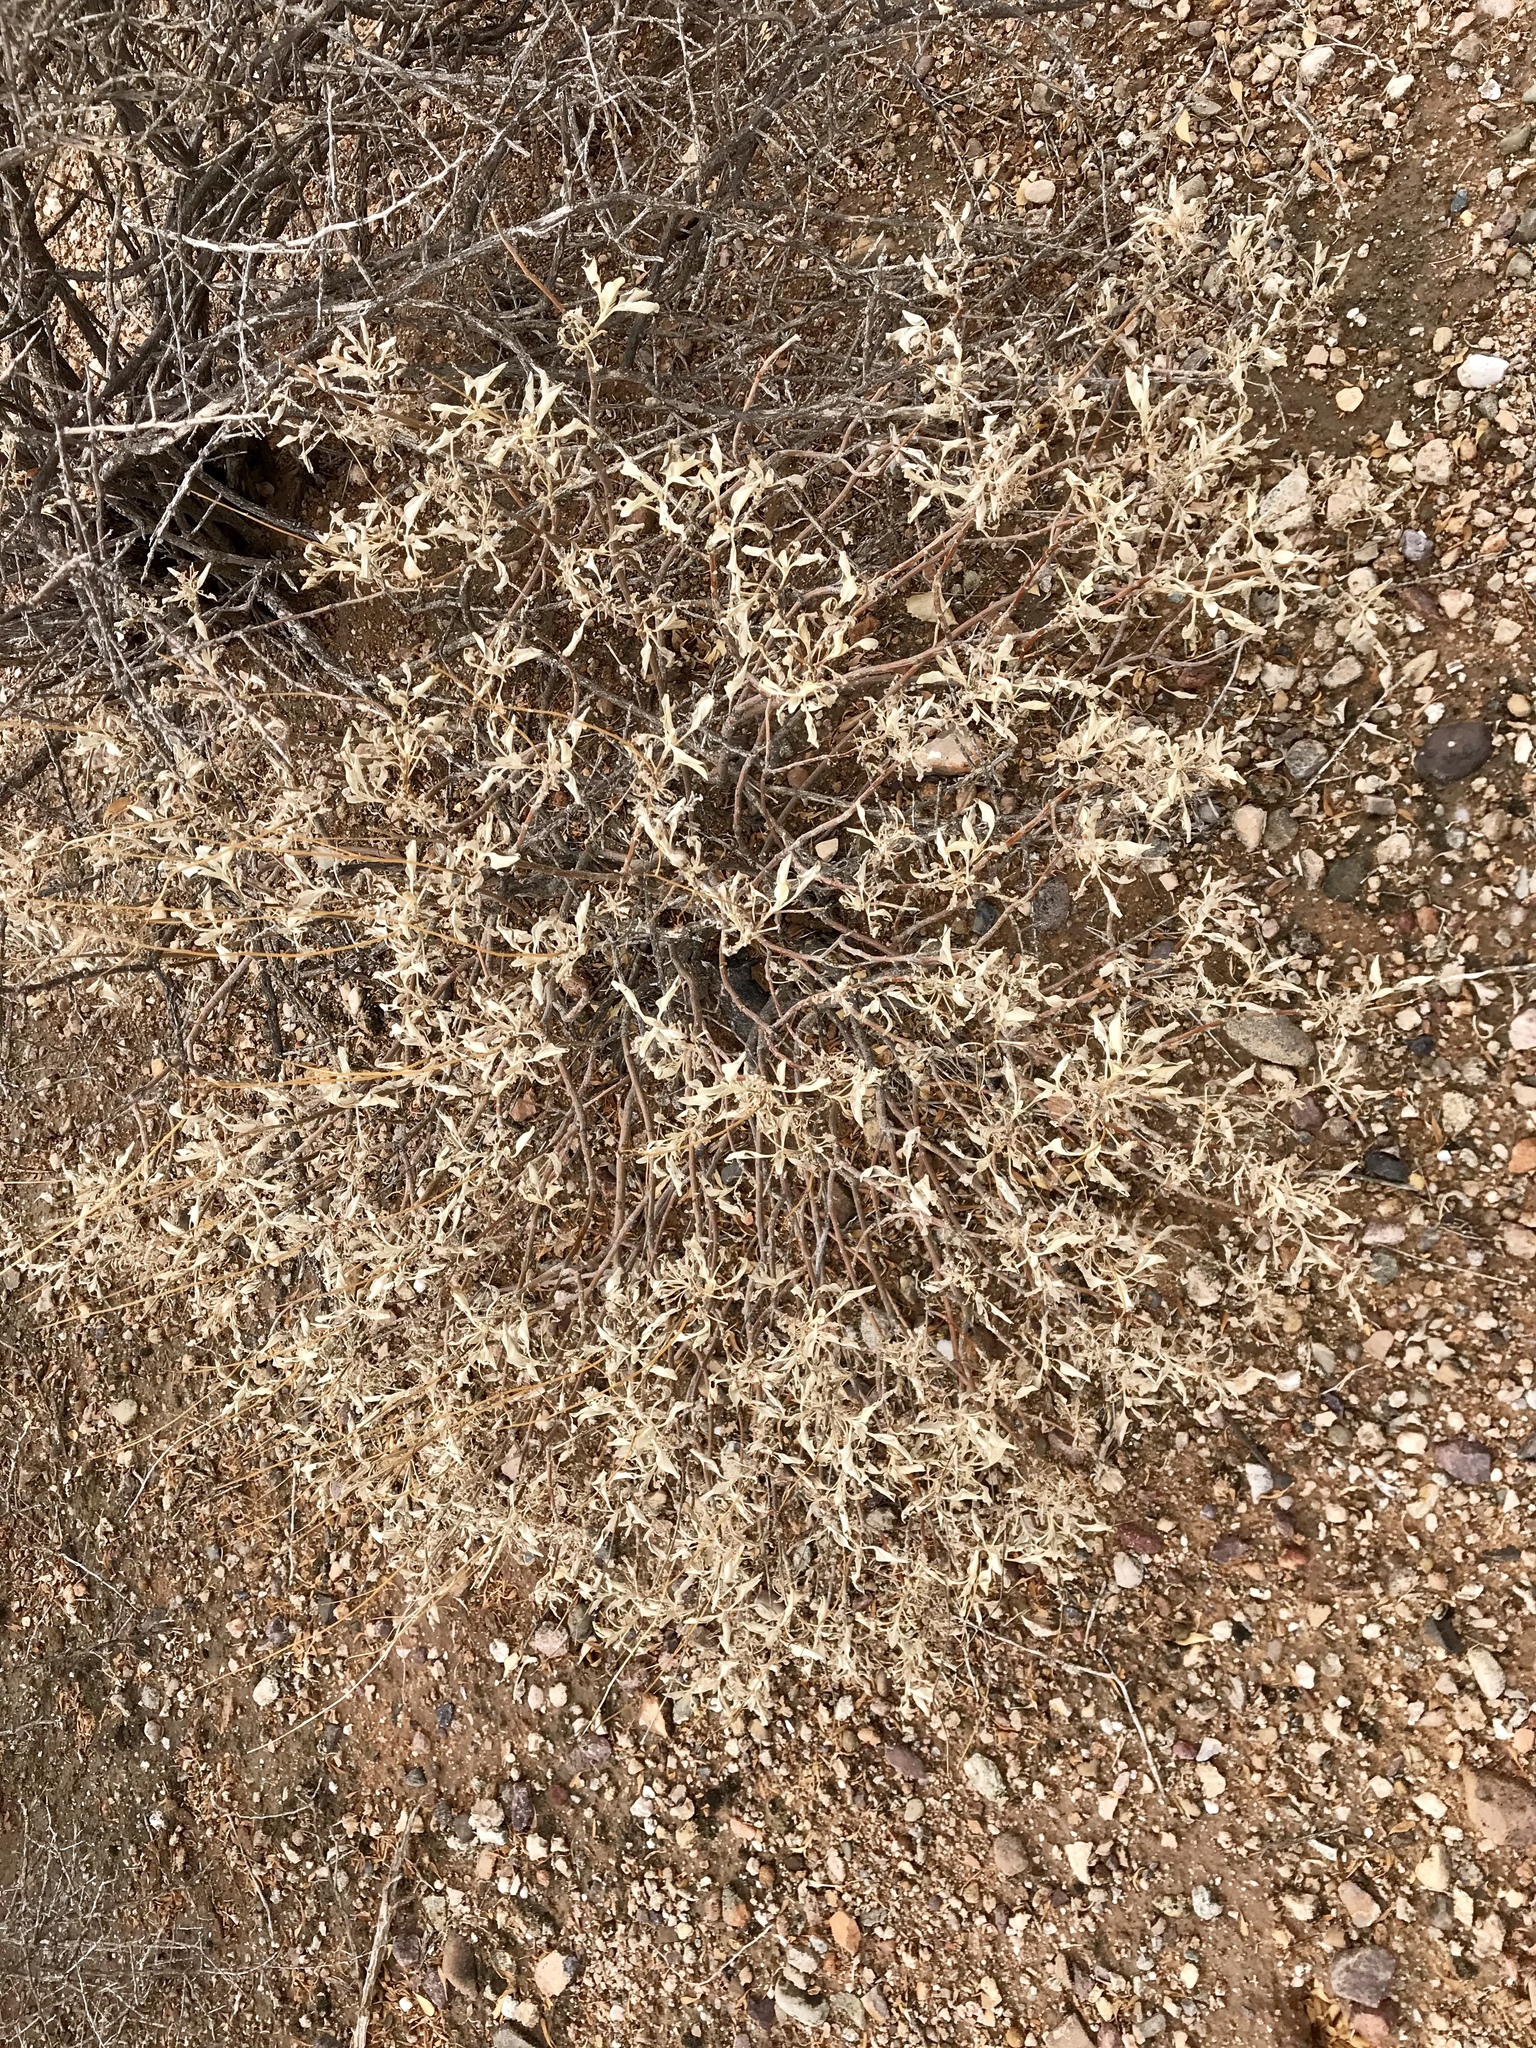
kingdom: Plantae
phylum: Tracheophyta
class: Magnoliopsida
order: Asterales
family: Asteraceae
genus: Ambrosia
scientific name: Ambrosia deltoidea
